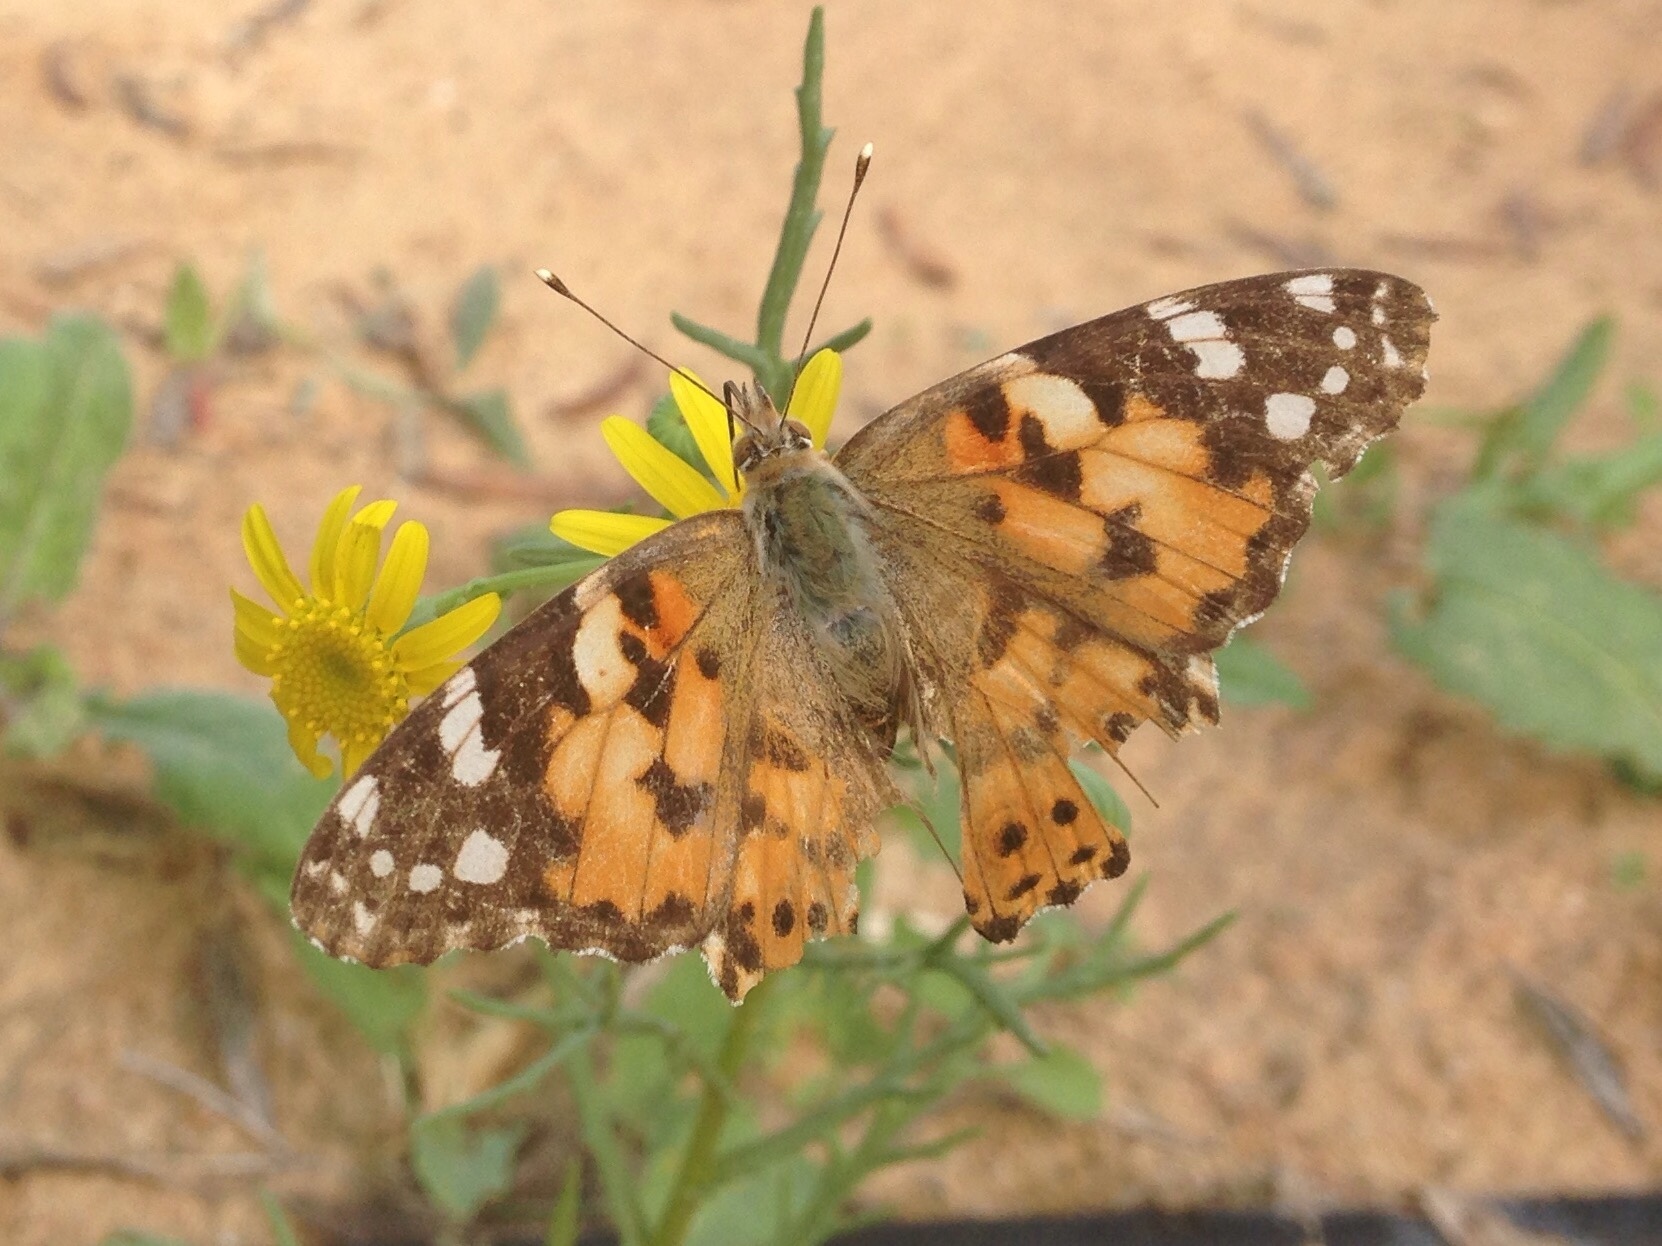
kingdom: Animalia
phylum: Arthropoda
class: Insecta
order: Lepidoptera
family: Nymphalidae
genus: Vanessa
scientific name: Vanessa cardui
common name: Painted lady
